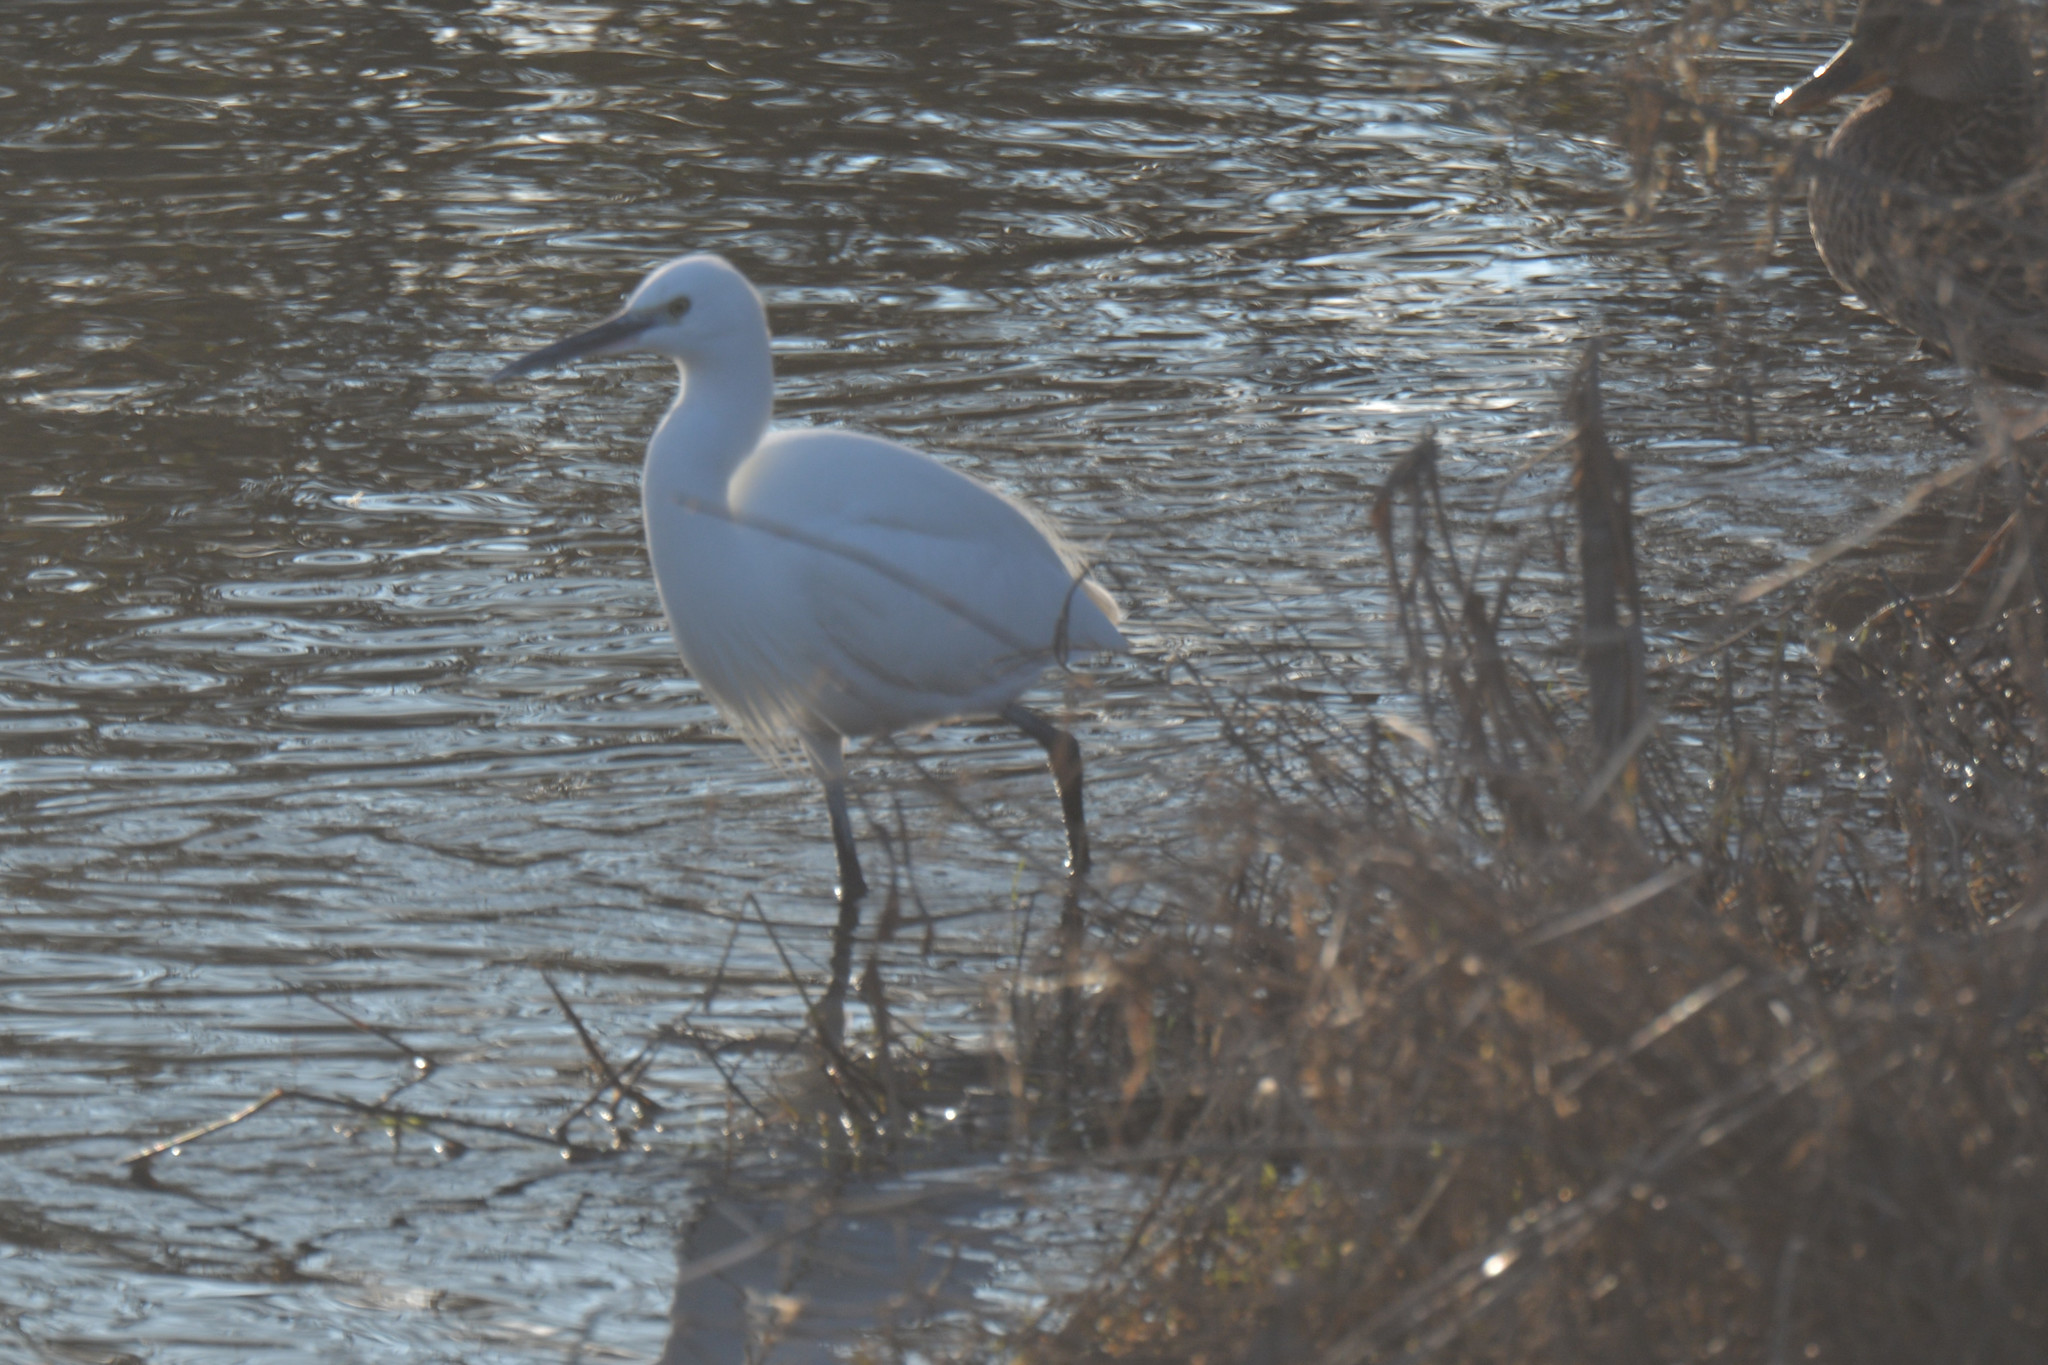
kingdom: Animalia
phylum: Chordata
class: Aves
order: Pelecaniformes
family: Ardeidae
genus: Egretta
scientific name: Egretta garzetta
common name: Little egret
